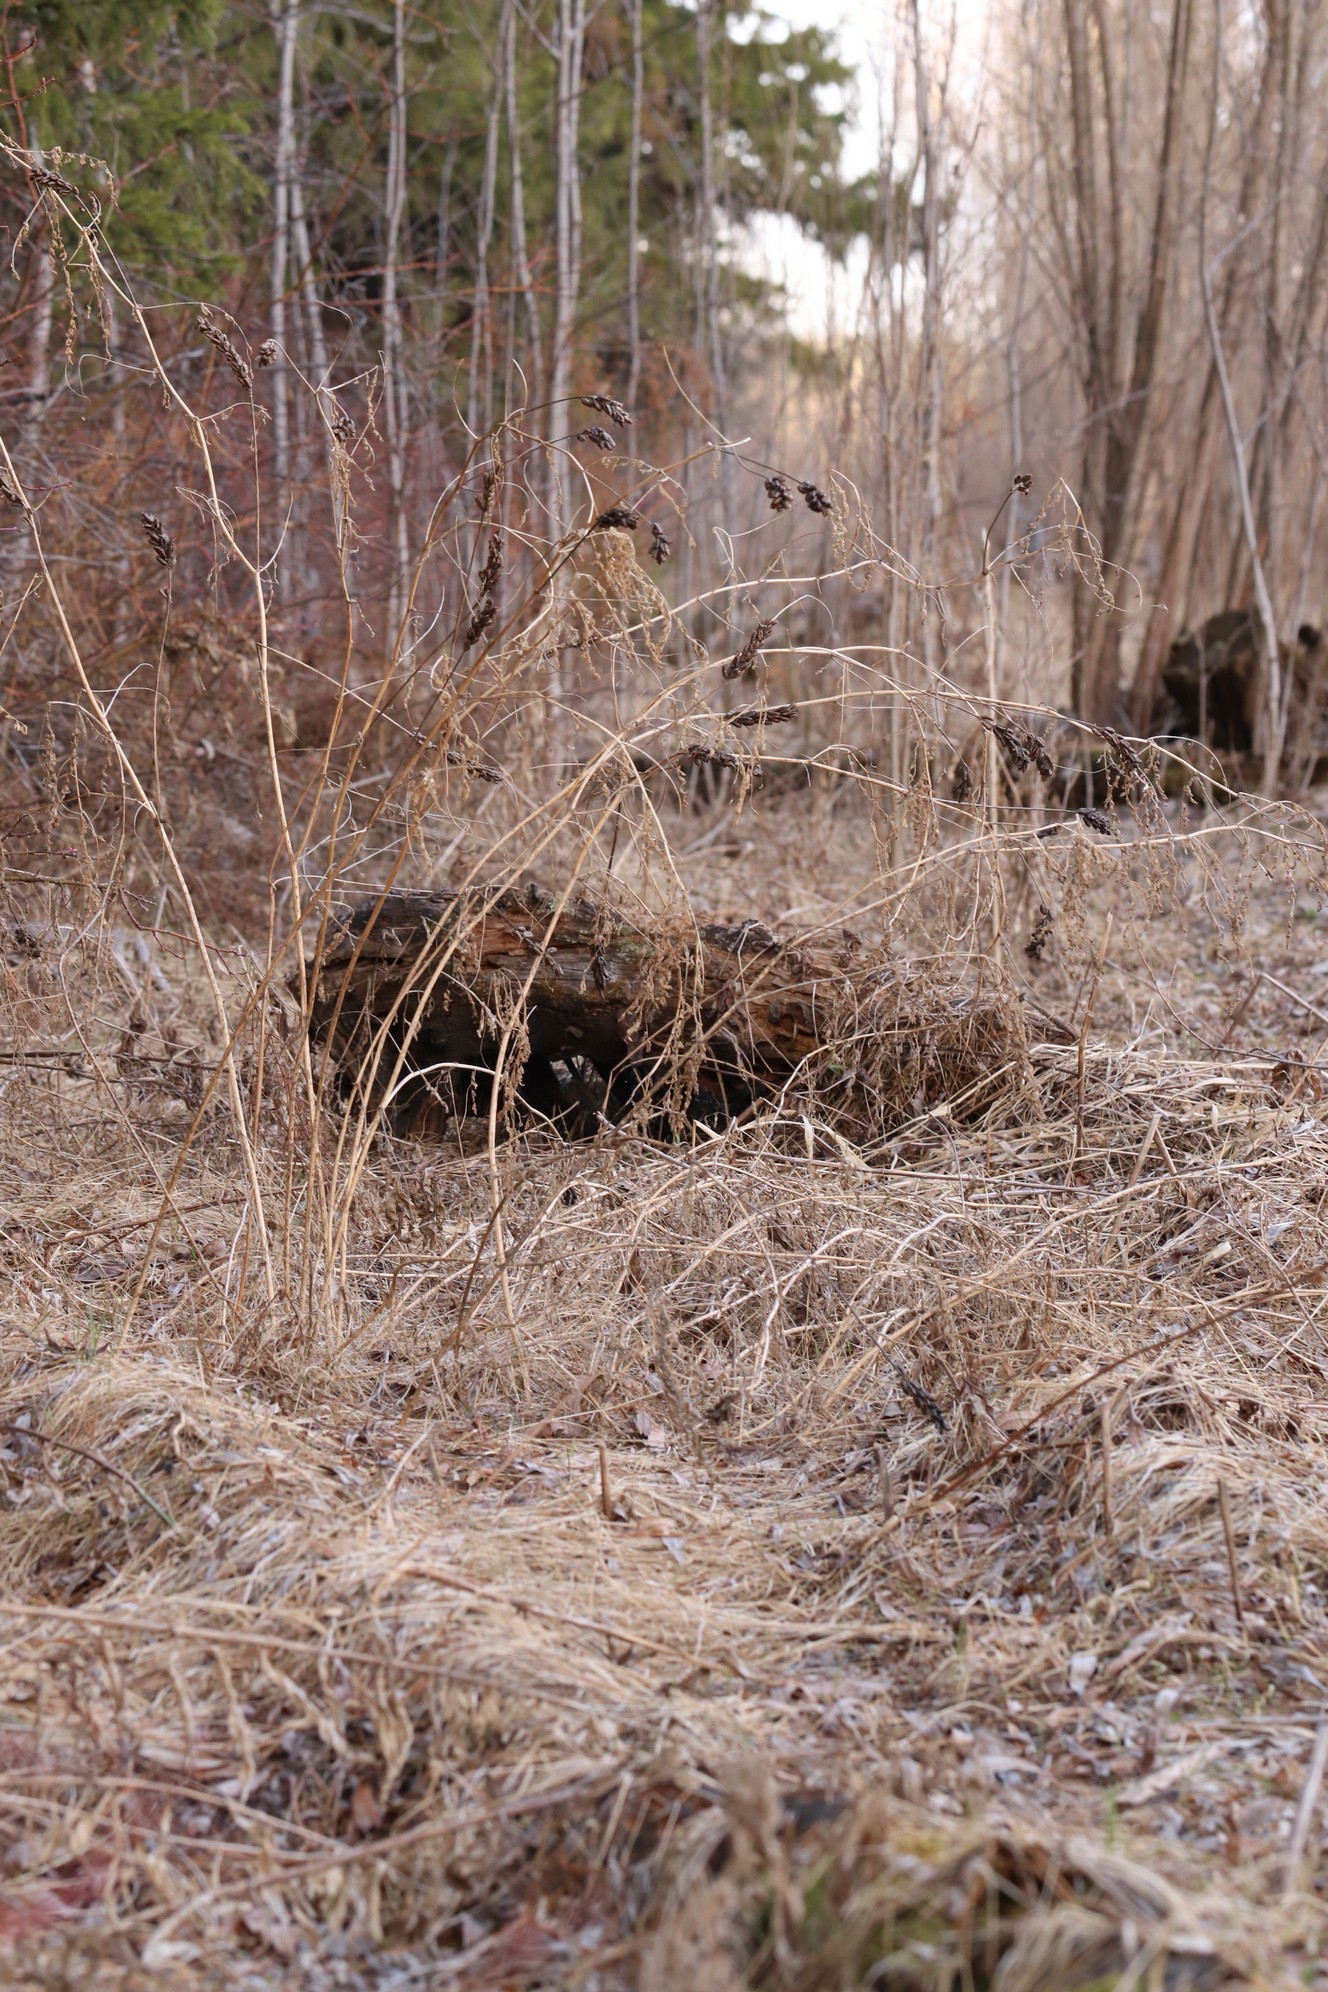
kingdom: Plantae
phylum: Tracheophyta
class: Magnoliopsida
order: Fabales
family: Fabaceae
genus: Astragalus
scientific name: Astragalus uliginosus
